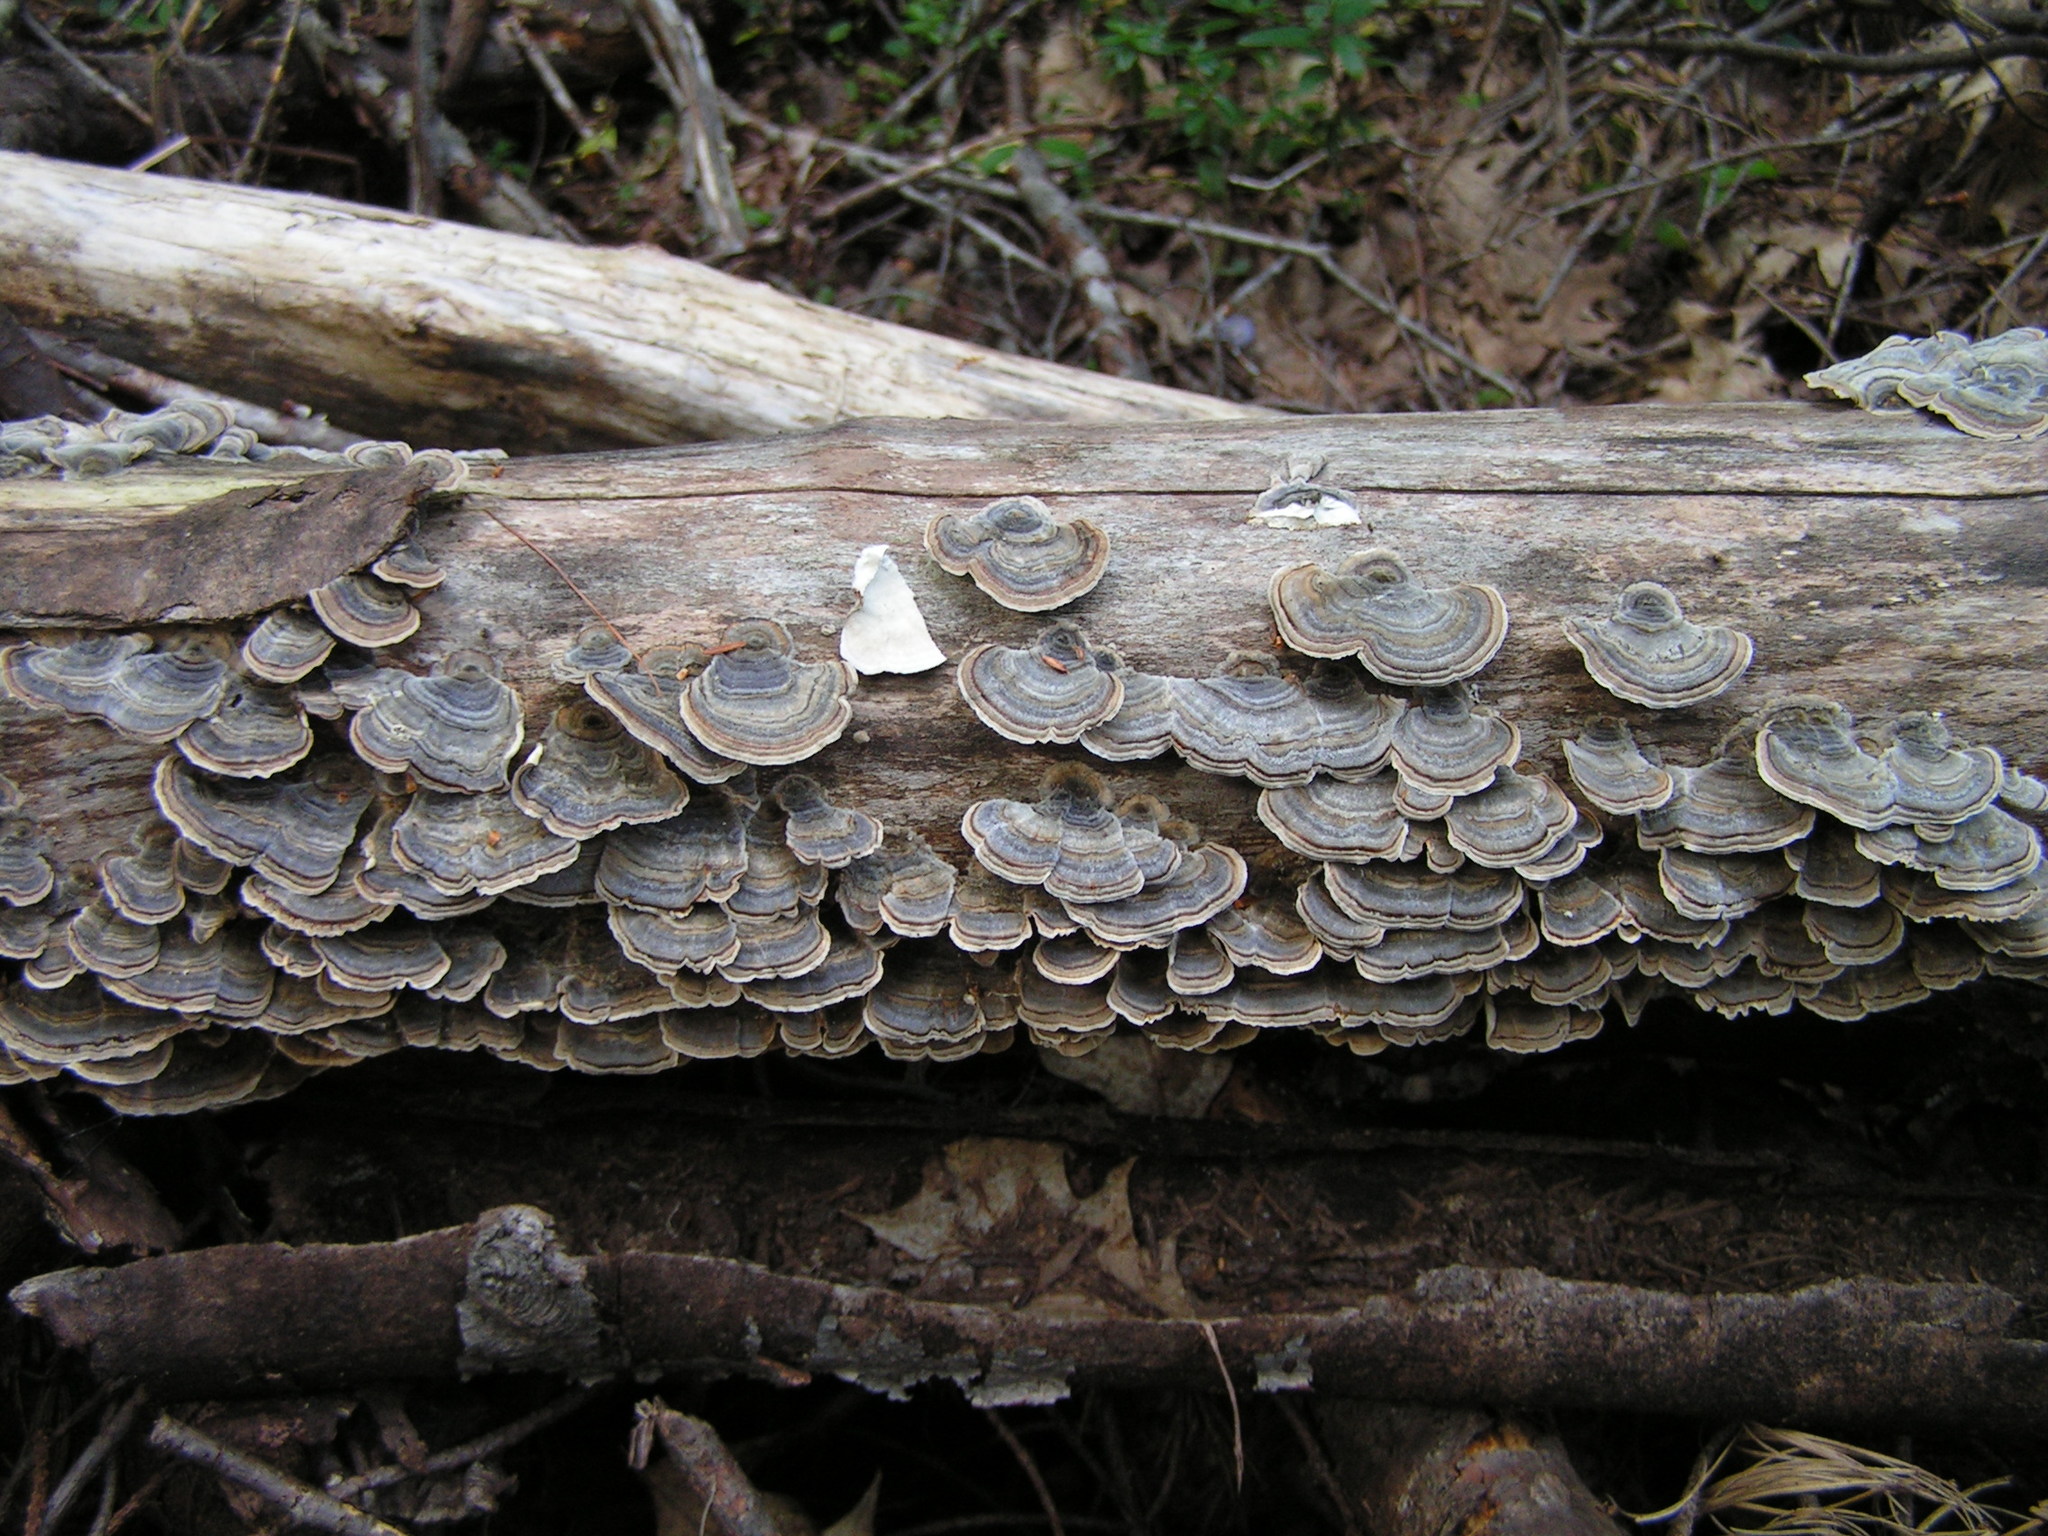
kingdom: Fungi
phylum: Basidiomycota
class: Agaricomycetes
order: Polyporales
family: Polyporaceae
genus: Trametes
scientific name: Trametes versicolor
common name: Turkeytail
